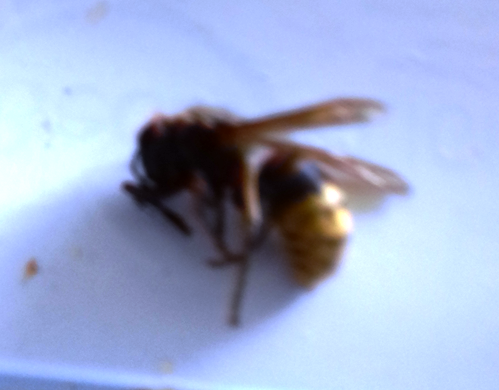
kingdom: Animalia
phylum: Arthropoda
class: Insecta
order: Hymenoptera
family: Vespidae
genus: Vespa
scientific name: Vespa crabro
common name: Hornet
